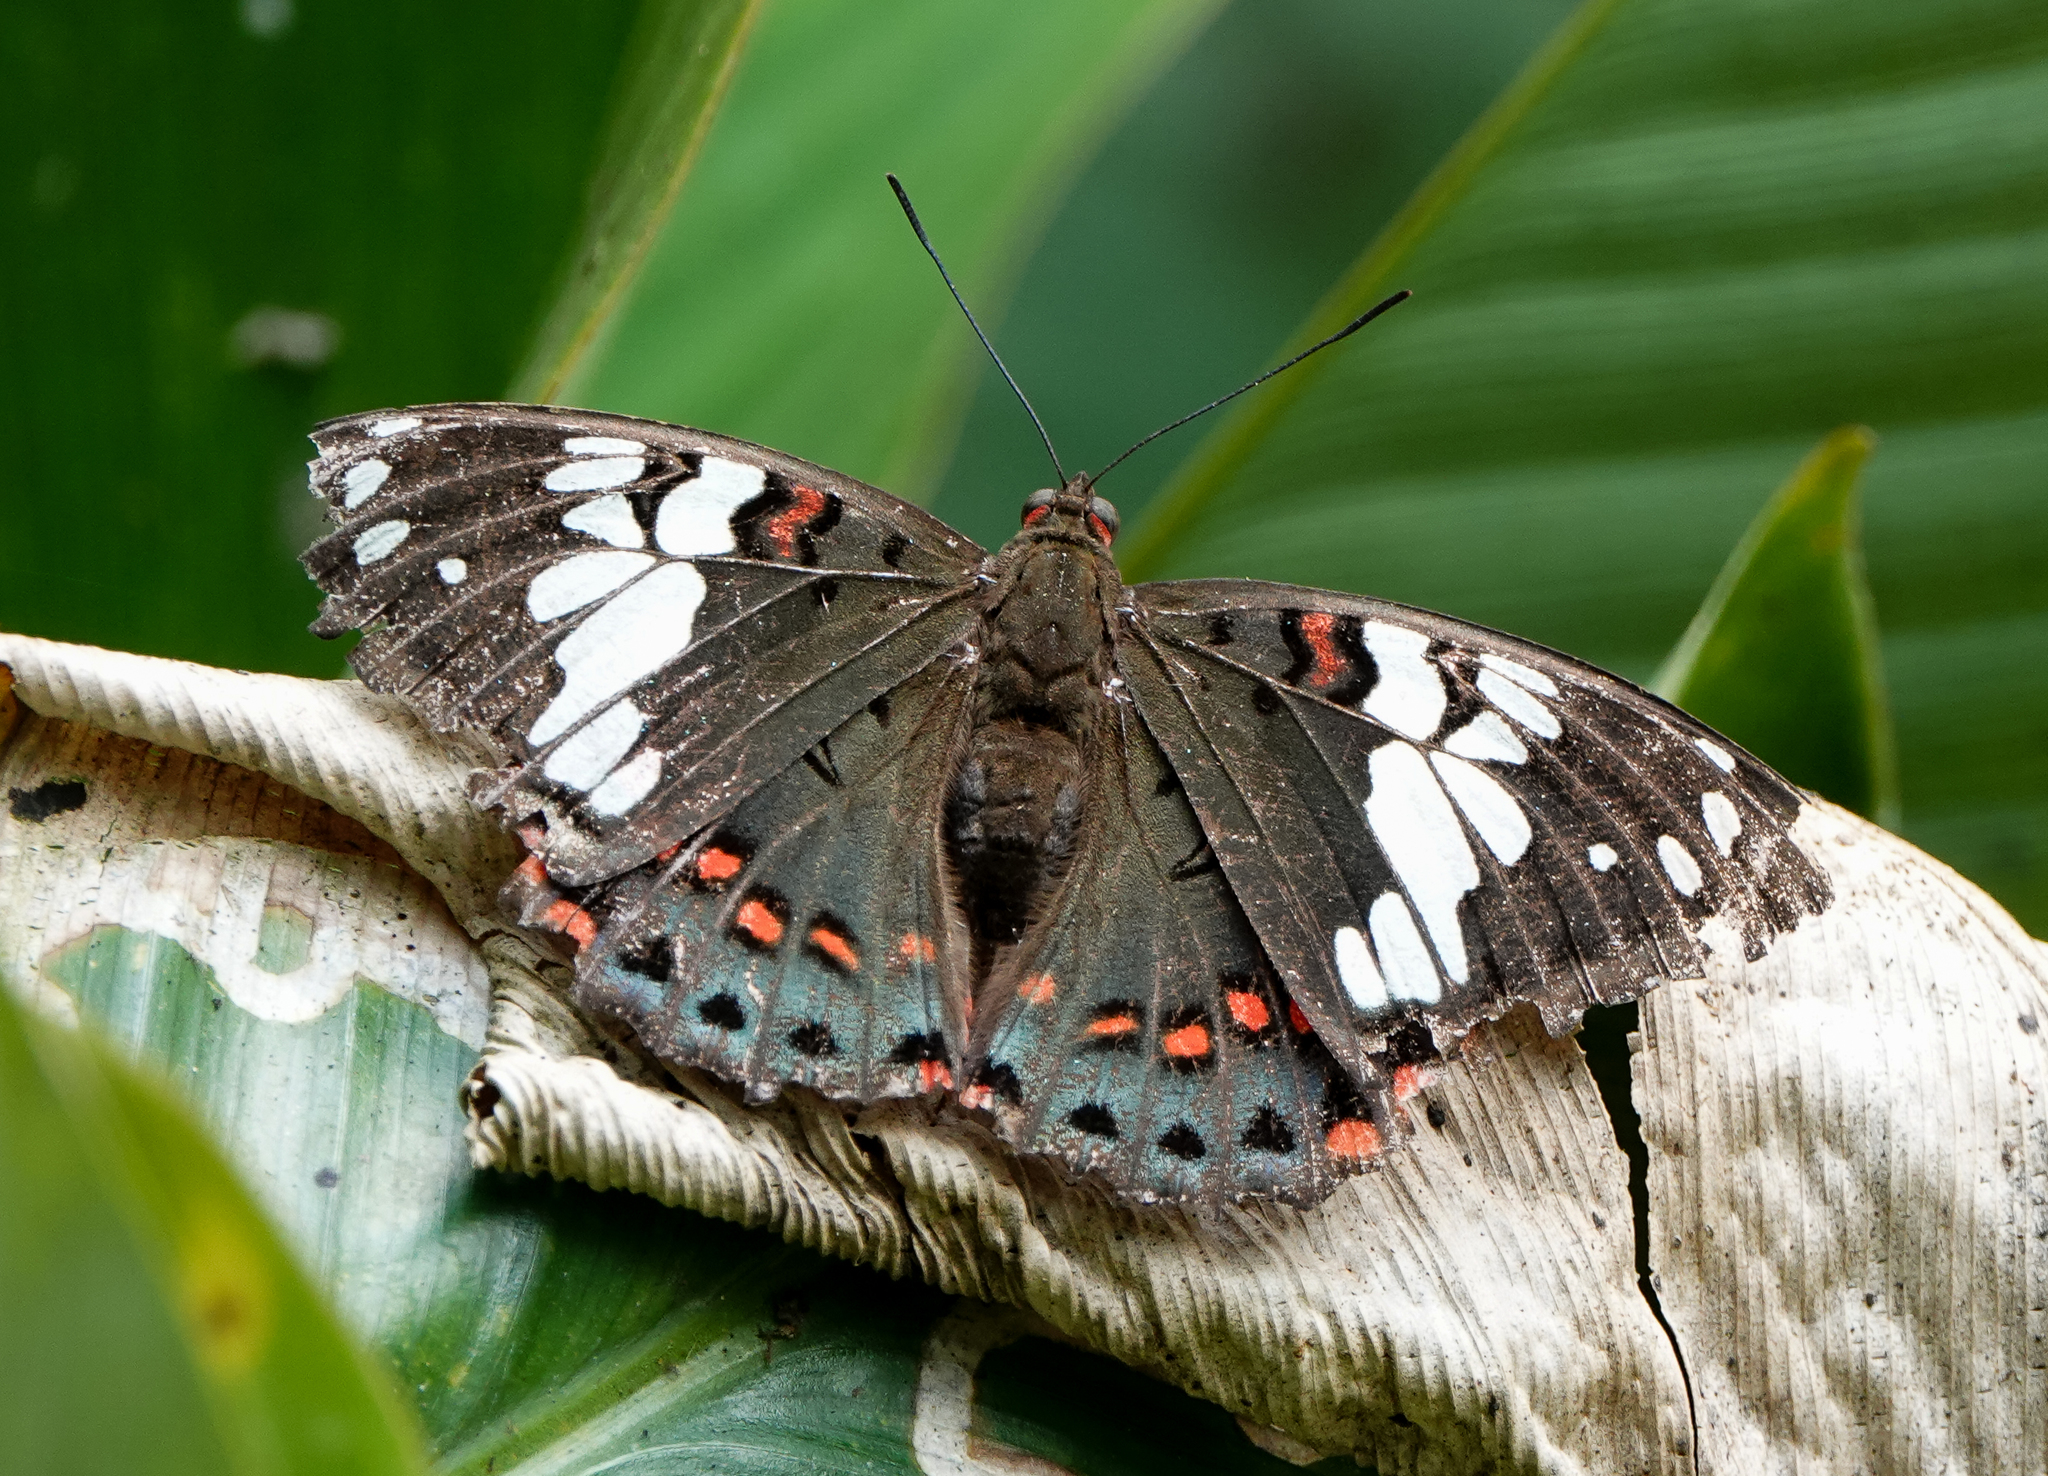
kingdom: Animalia
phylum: Arthropoda
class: Insecta
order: Lepidoptera
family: Nymphalidae
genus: Euthalia
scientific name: Euthalia lubentina
